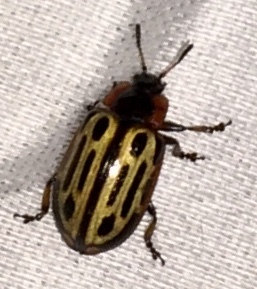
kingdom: Animalia
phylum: Arthropoda
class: Insecta
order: Coleoptera
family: Chrysomelidae
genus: Aethiopocassis
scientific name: Aethiopocassis scripta
